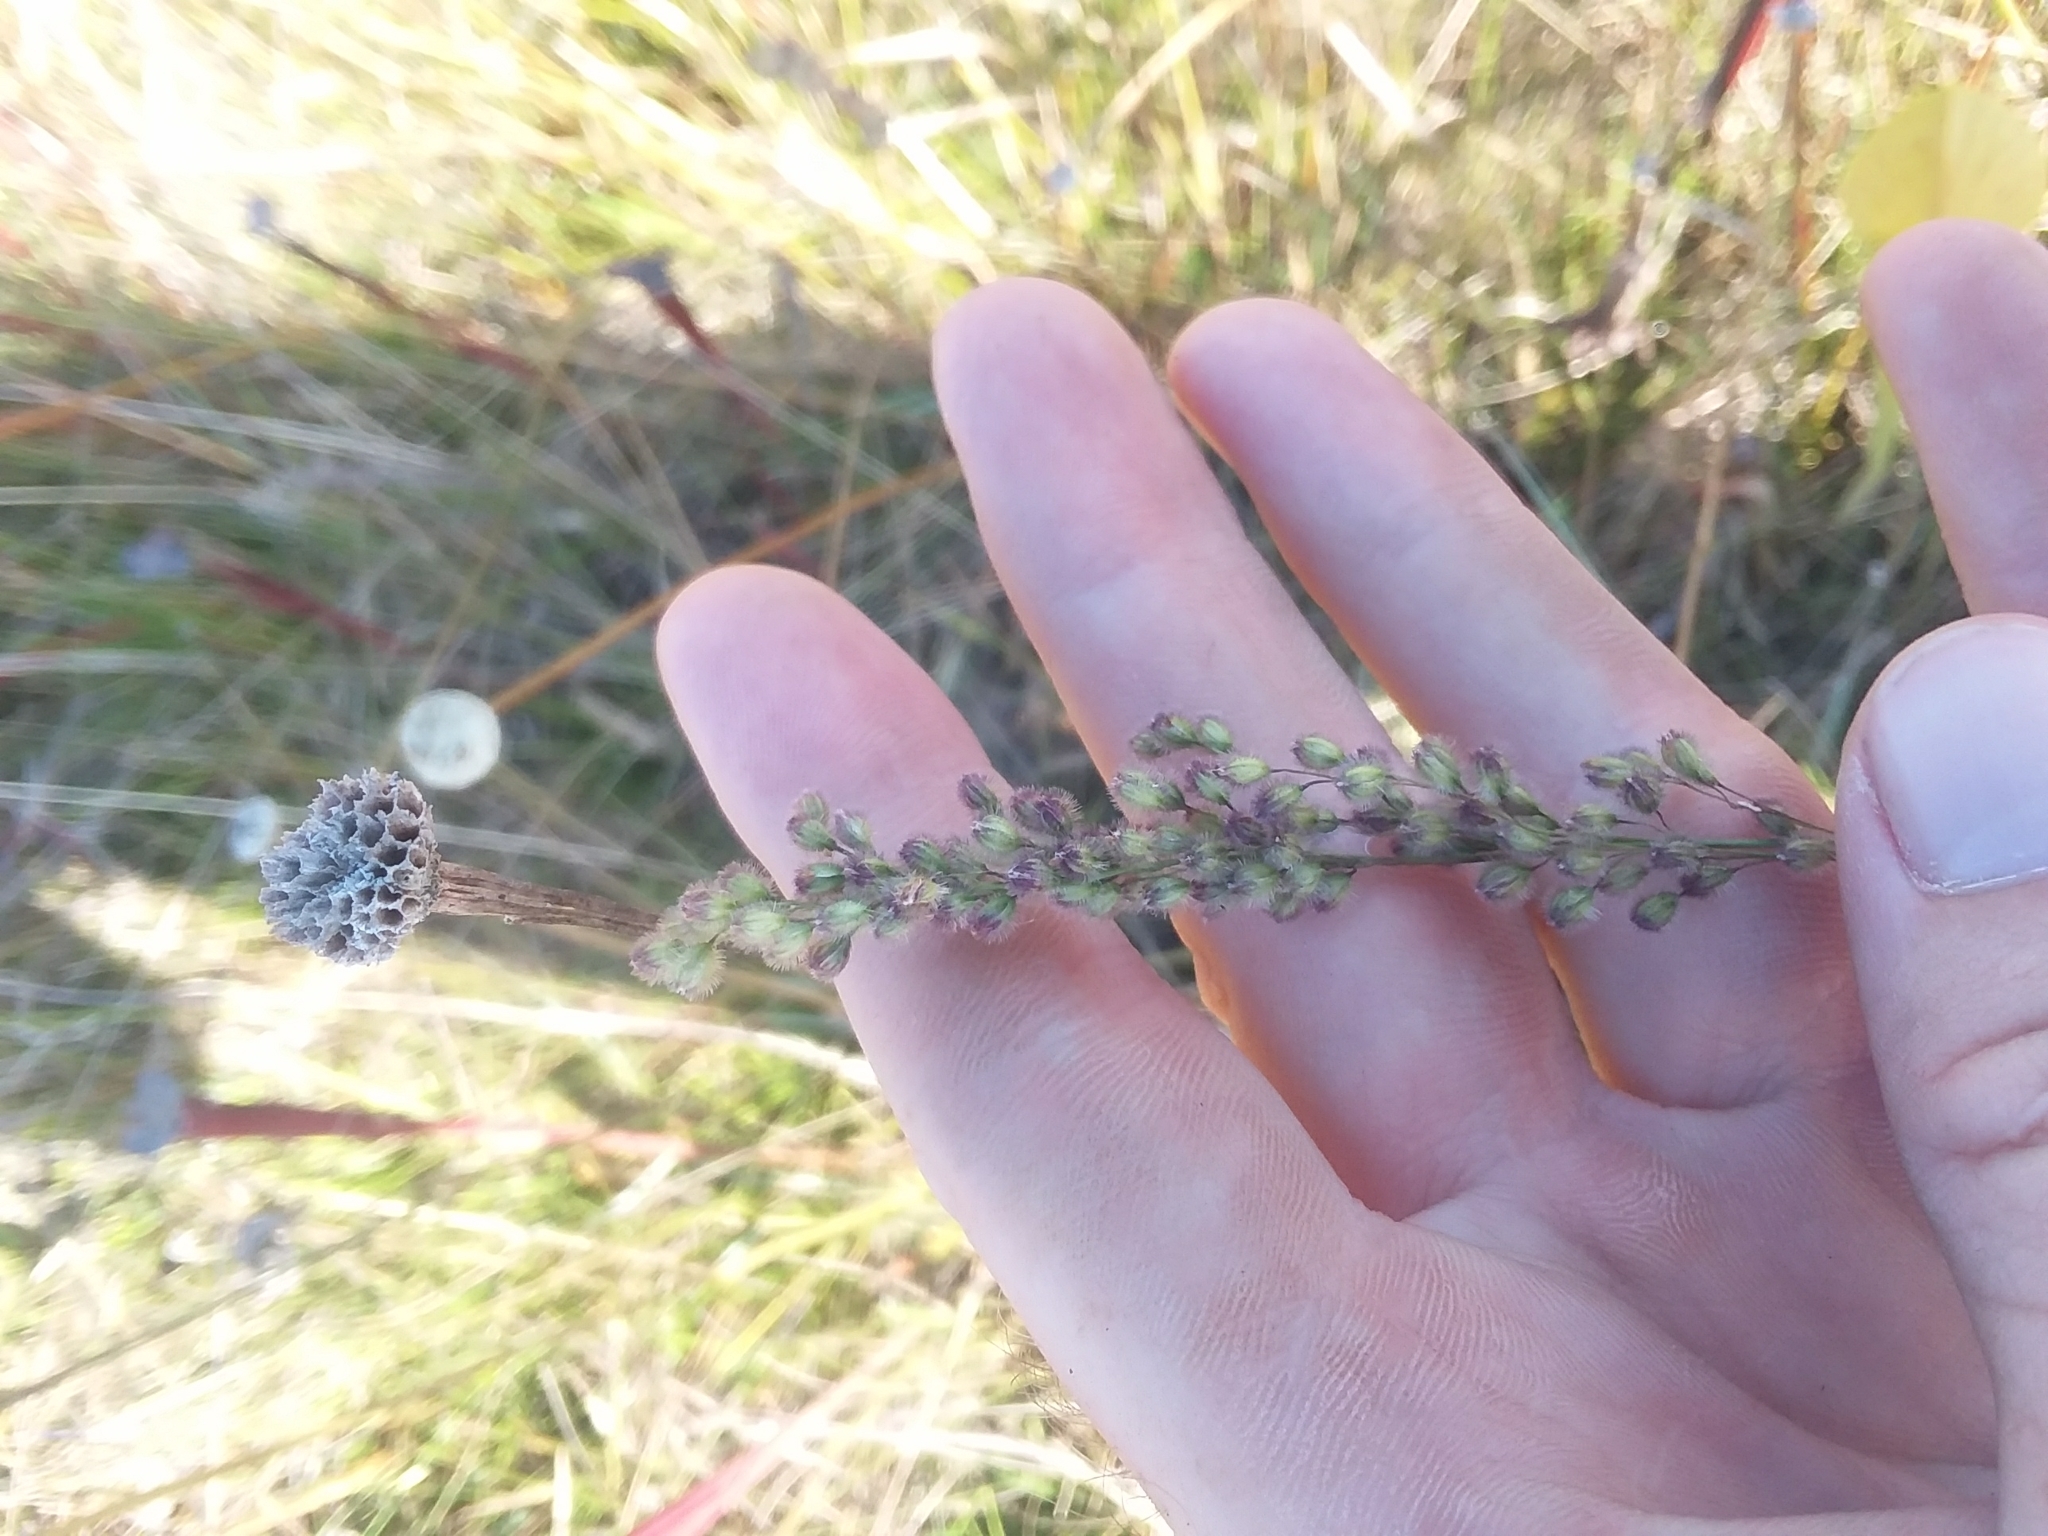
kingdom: Plantae
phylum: Tracheophyta
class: Liliopsida
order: Poales
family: Poaceae
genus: Anthenantia
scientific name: Anthenantia rufa
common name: Purple silkyscale
